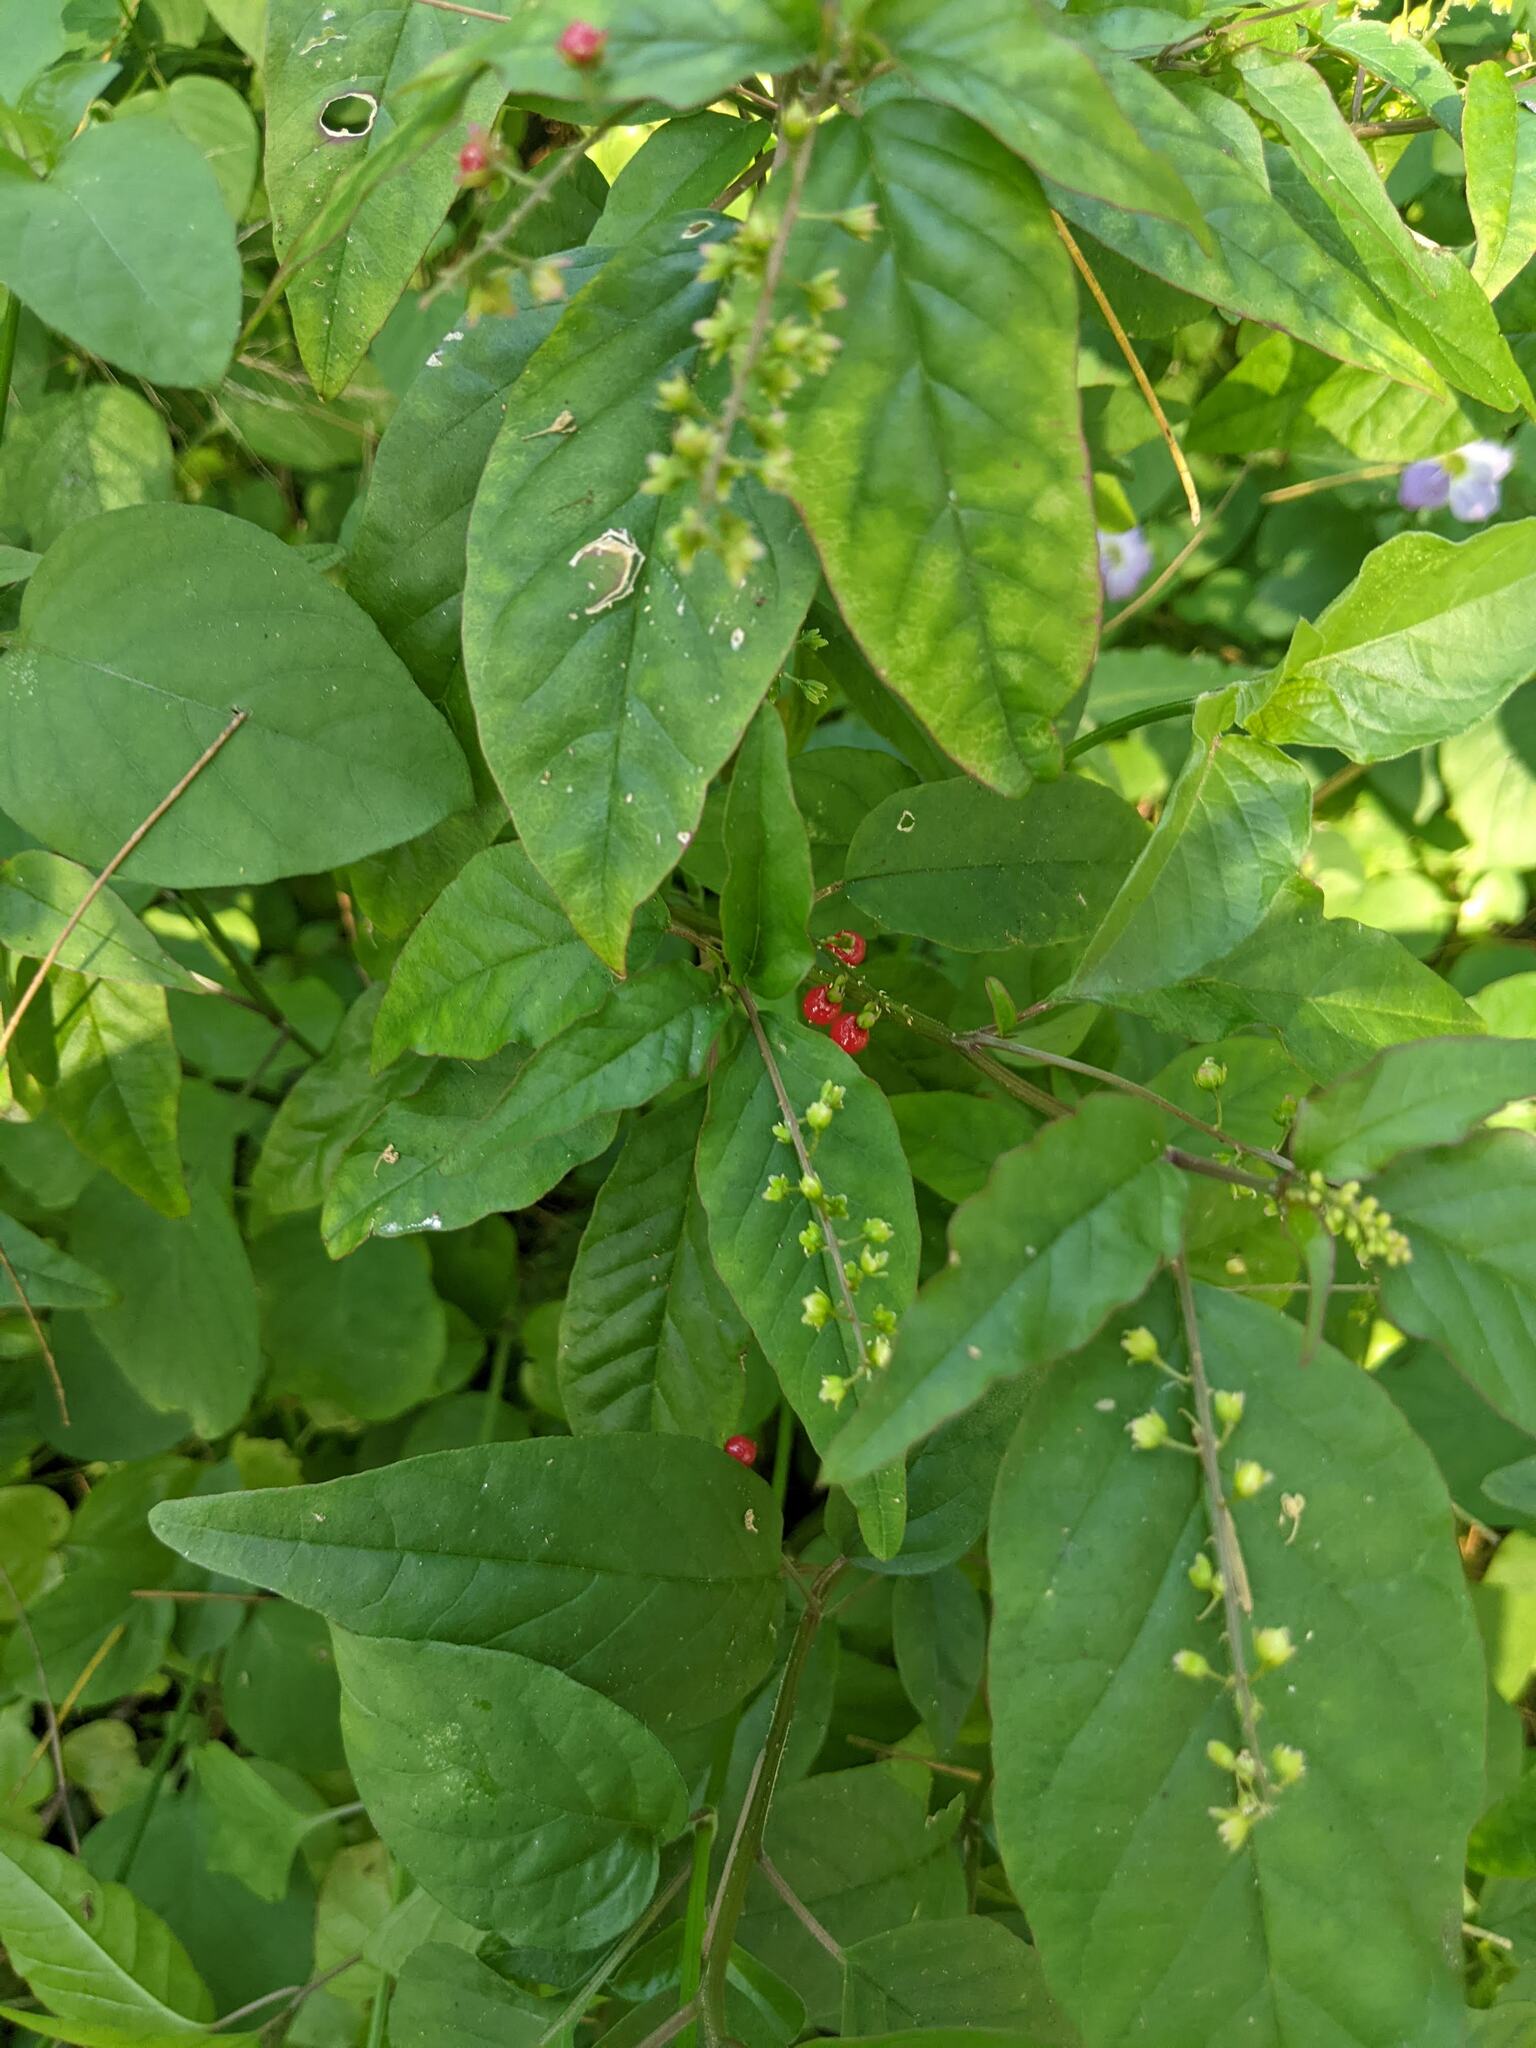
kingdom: Plantae
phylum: Tracheophyta
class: Magnoliopsida
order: Caryophyllales
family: Phytolaccaceae
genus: Rivina
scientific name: Rivina humilis
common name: Rougeplant
